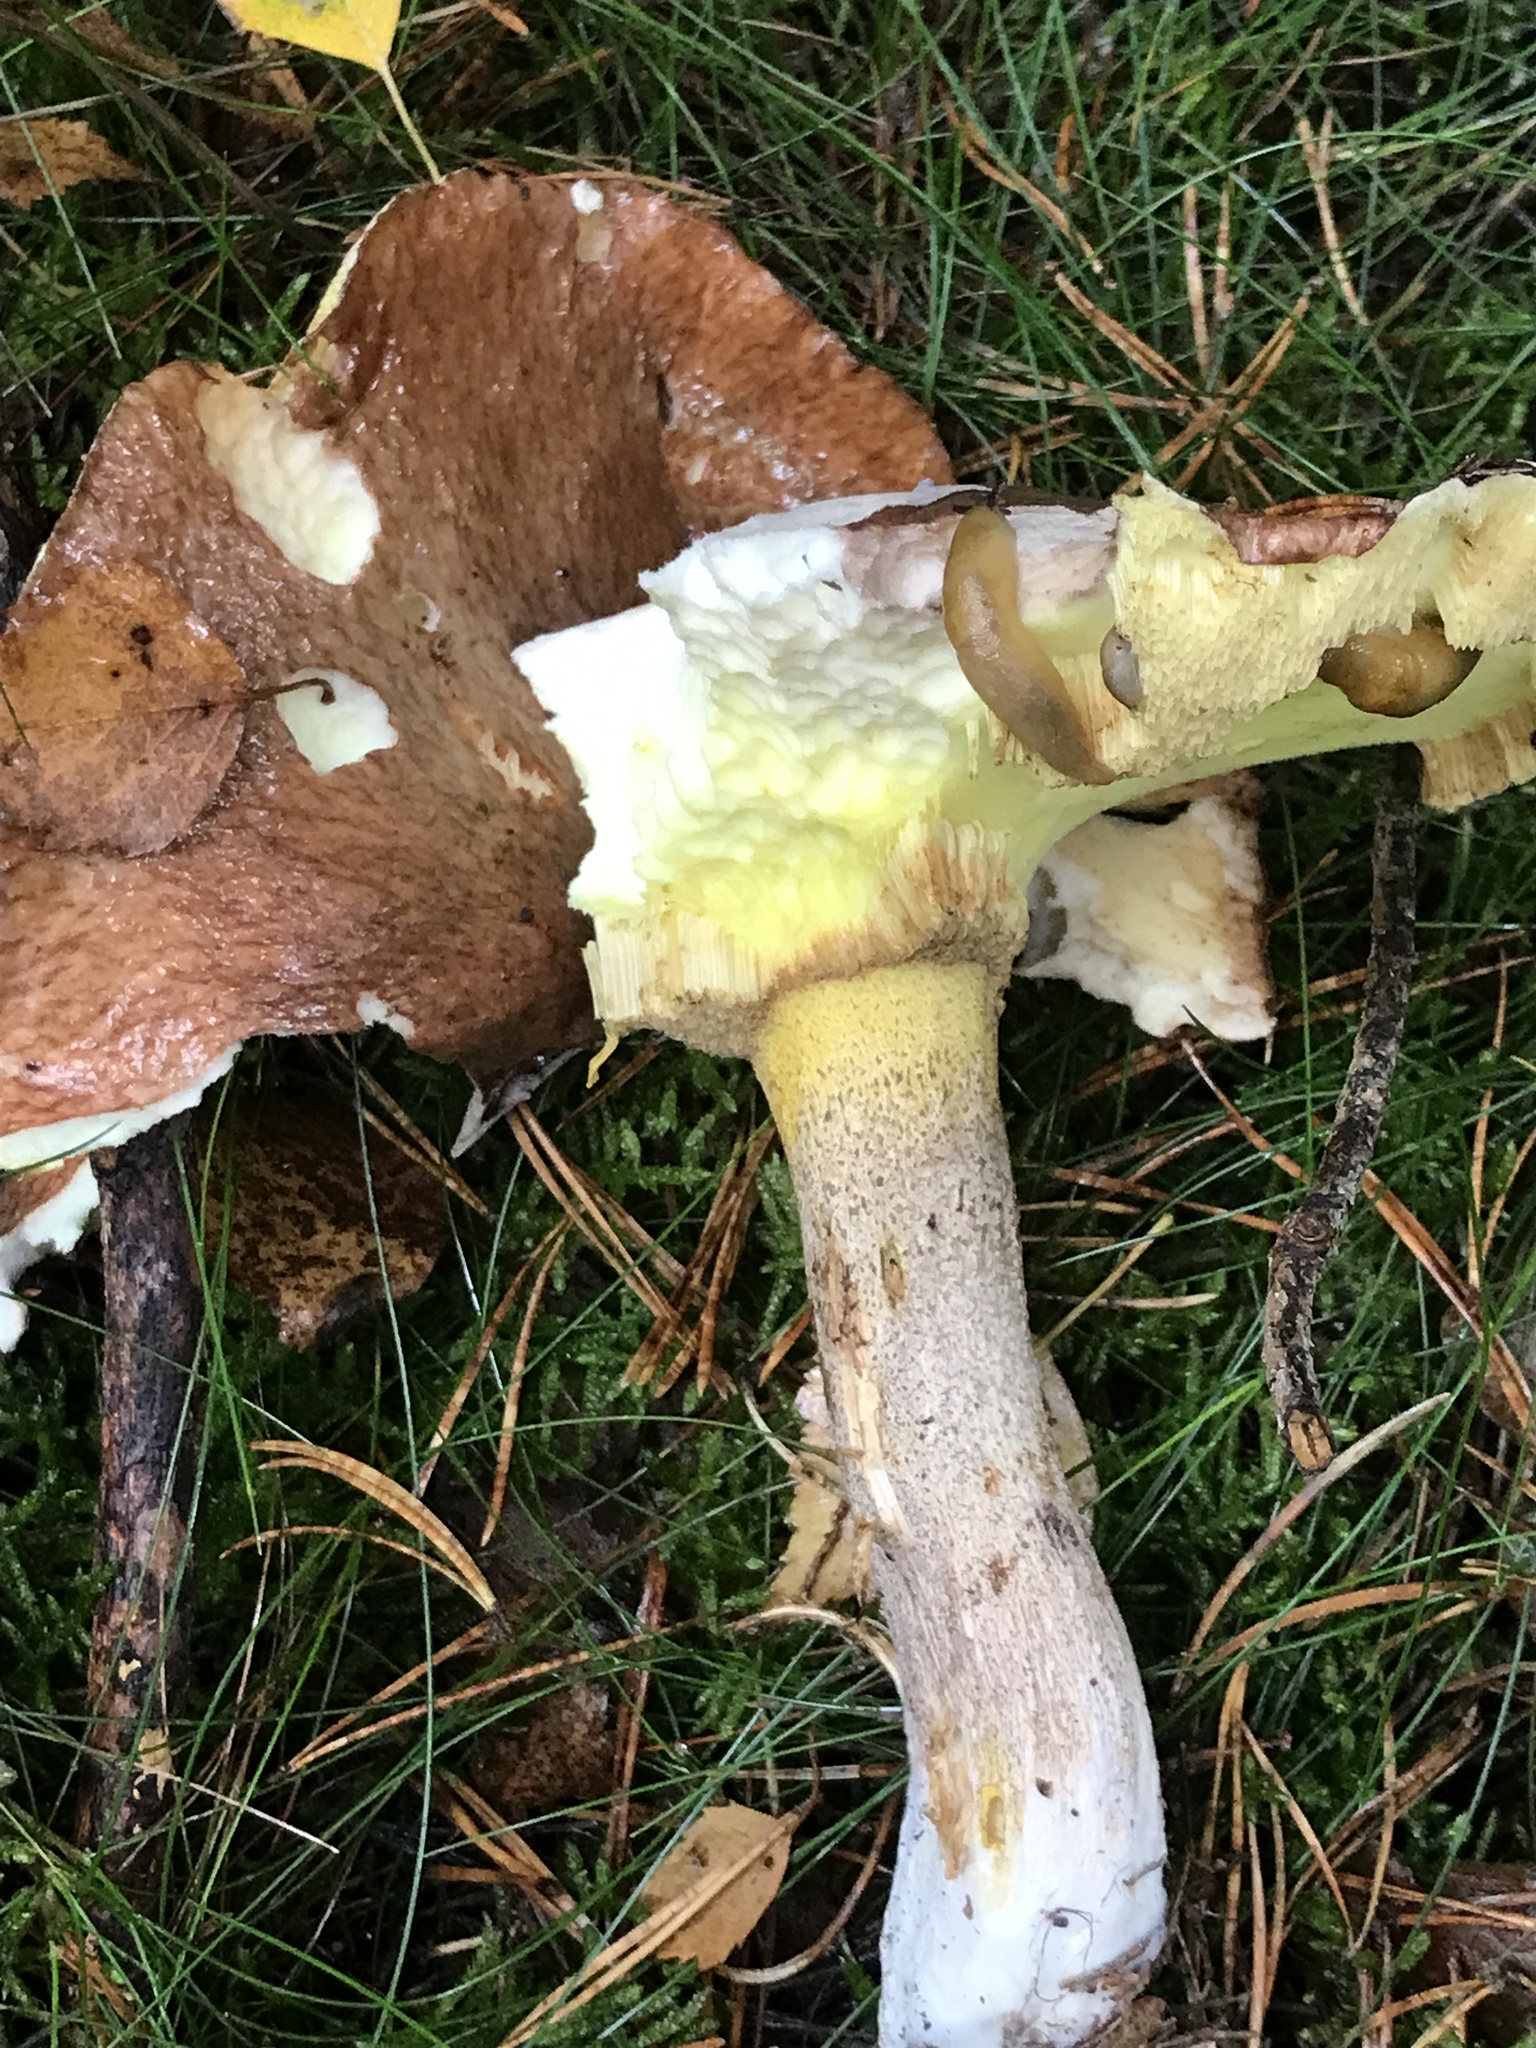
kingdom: Fungi
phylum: Basidiomycota
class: Agaricomycetes
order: Boletales
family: Suillaceae
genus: Suillus
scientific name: Suillus luteus
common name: Slippery jack
